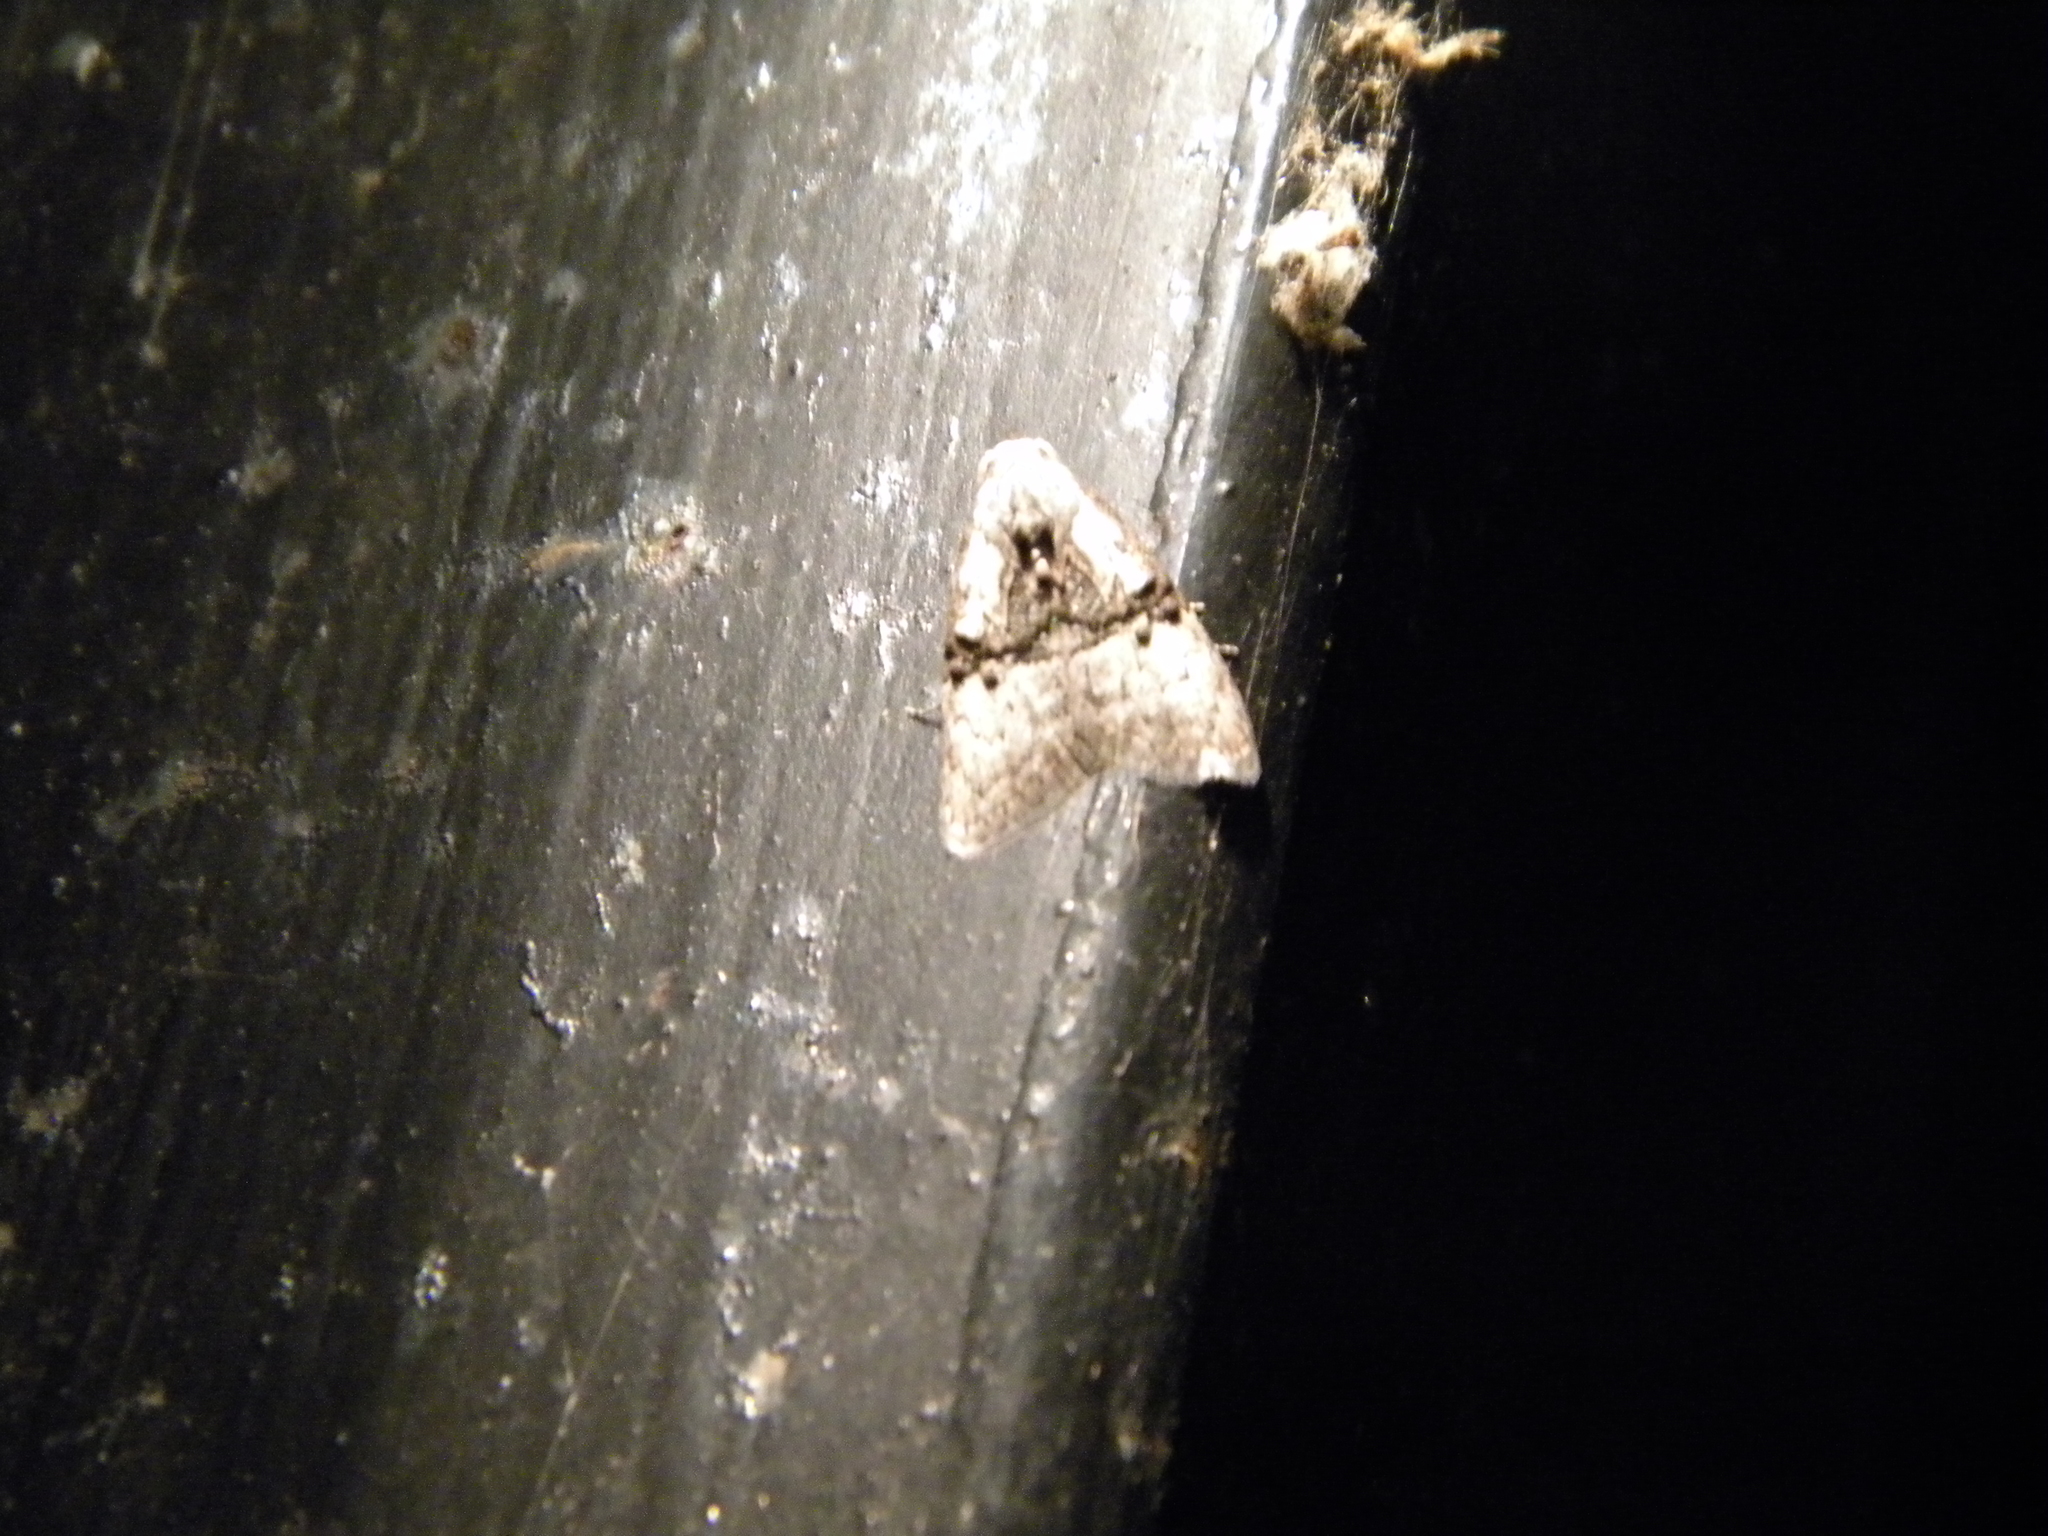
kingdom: Animalia
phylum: Arthropoda
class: Insecta
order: Lepidoptera
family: Nolidae
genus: Meganola
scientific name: Meganola togatulalis
